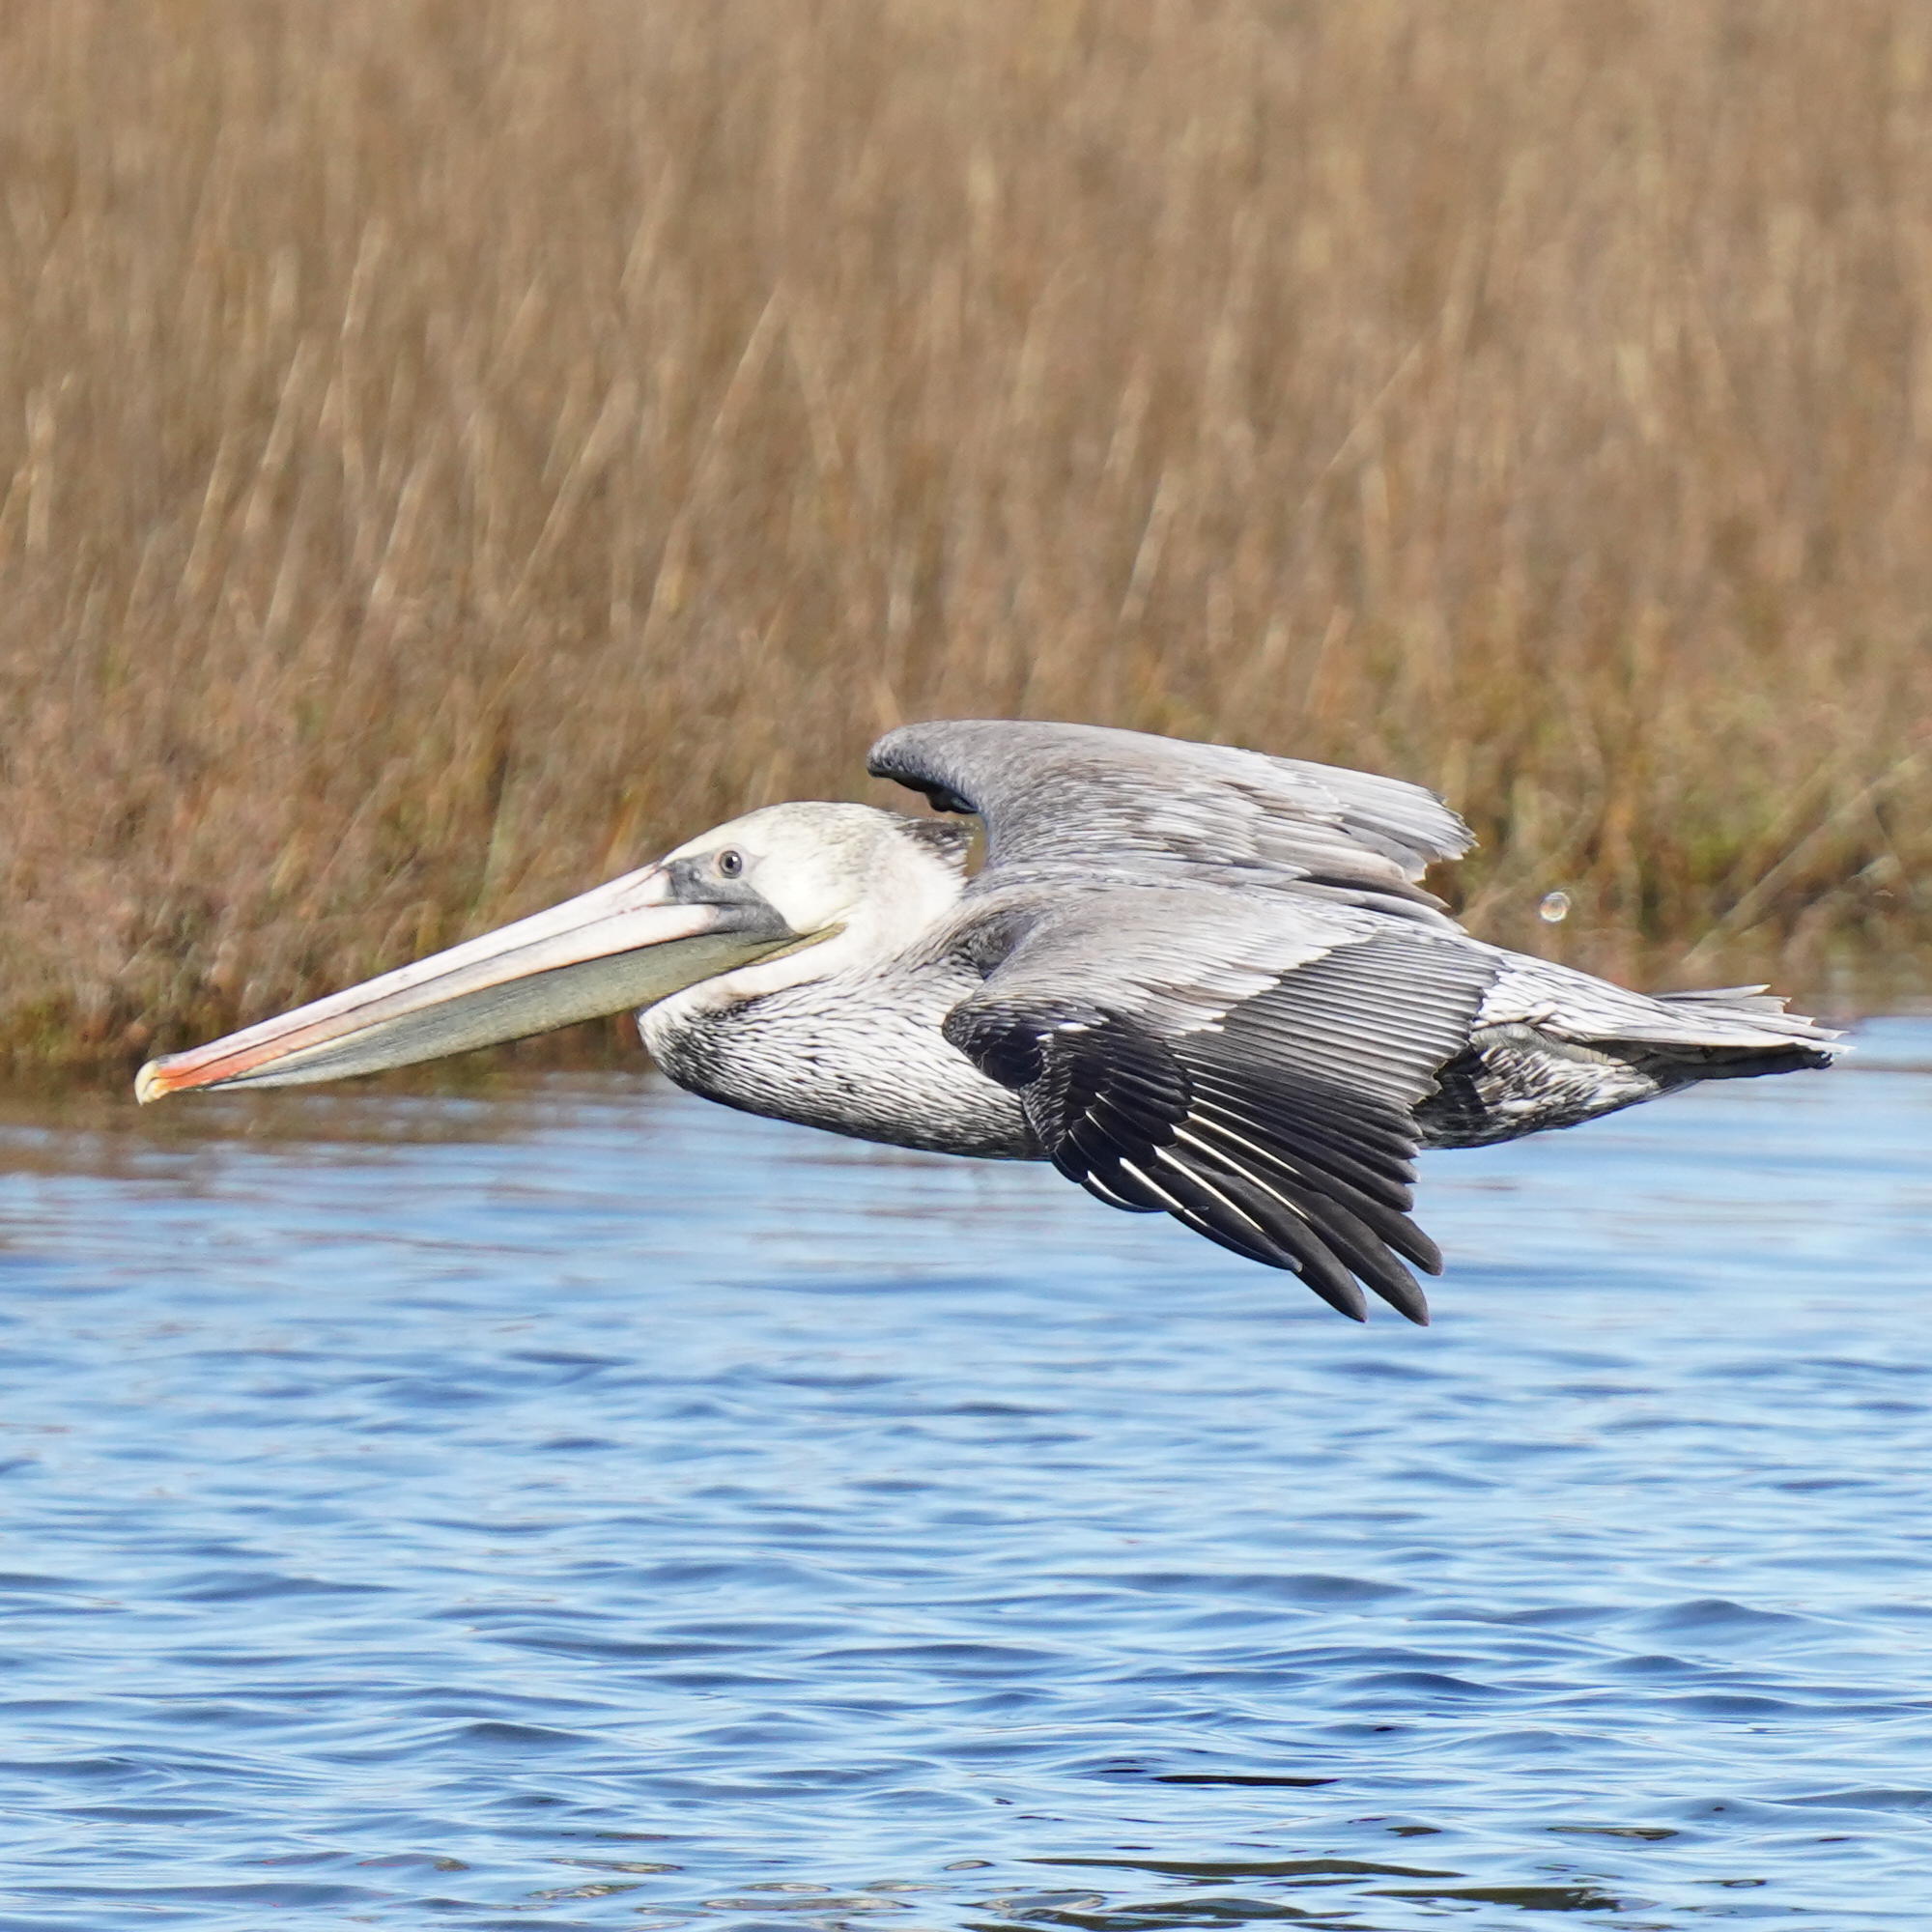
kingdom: Animalia
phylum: Chordata
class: Aves
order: Pelecaniformes
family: Pelecanidae
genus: Pelecanus
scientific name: Pelecanus occidentalis
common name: Brown pelican
